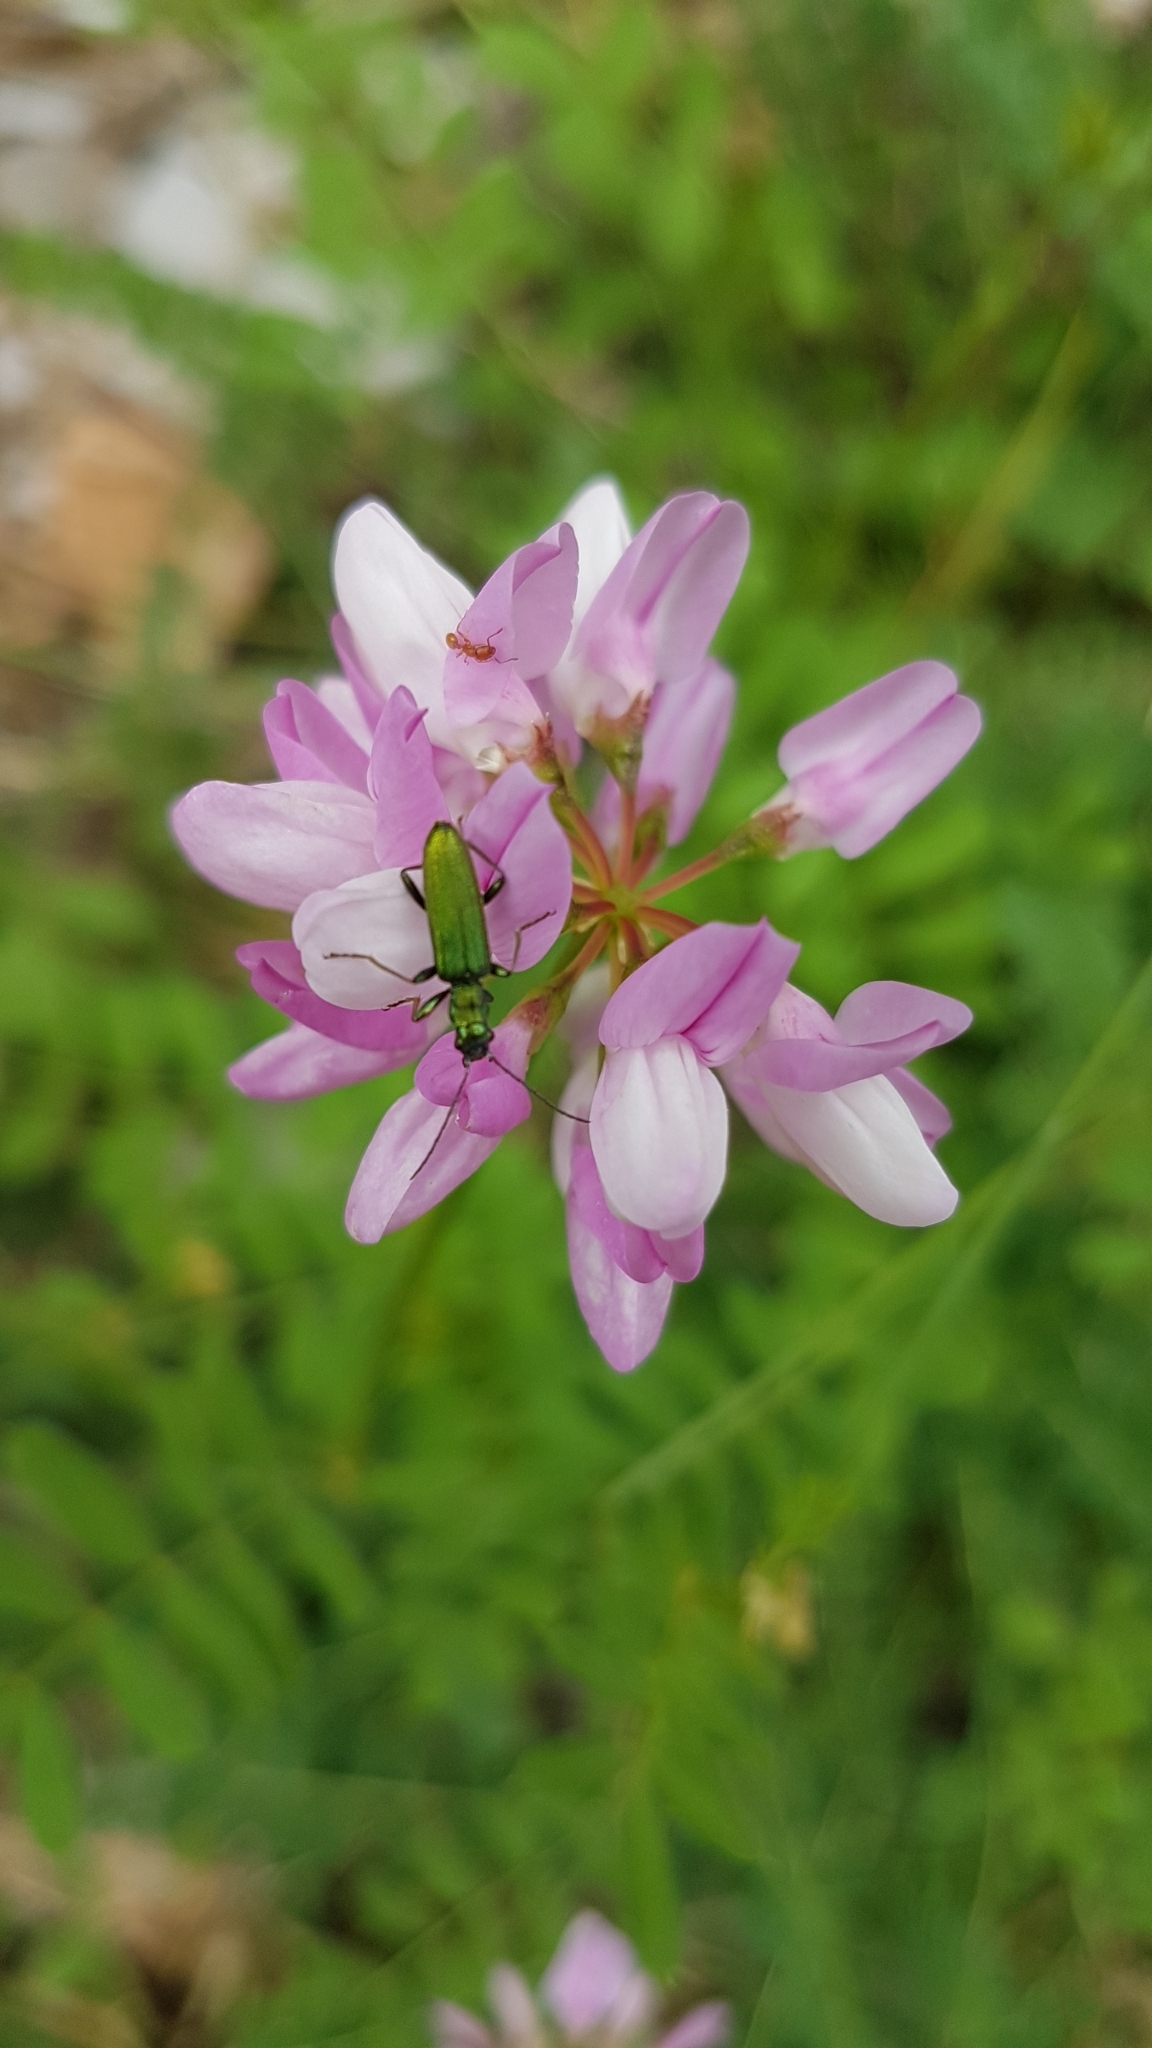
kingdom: Plantae
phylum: Tracheophyta
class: Magnoliopsida
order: Fabales
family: Fabaceae
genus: Coronilla
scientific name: Coronilla varia
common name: Crownvetch
